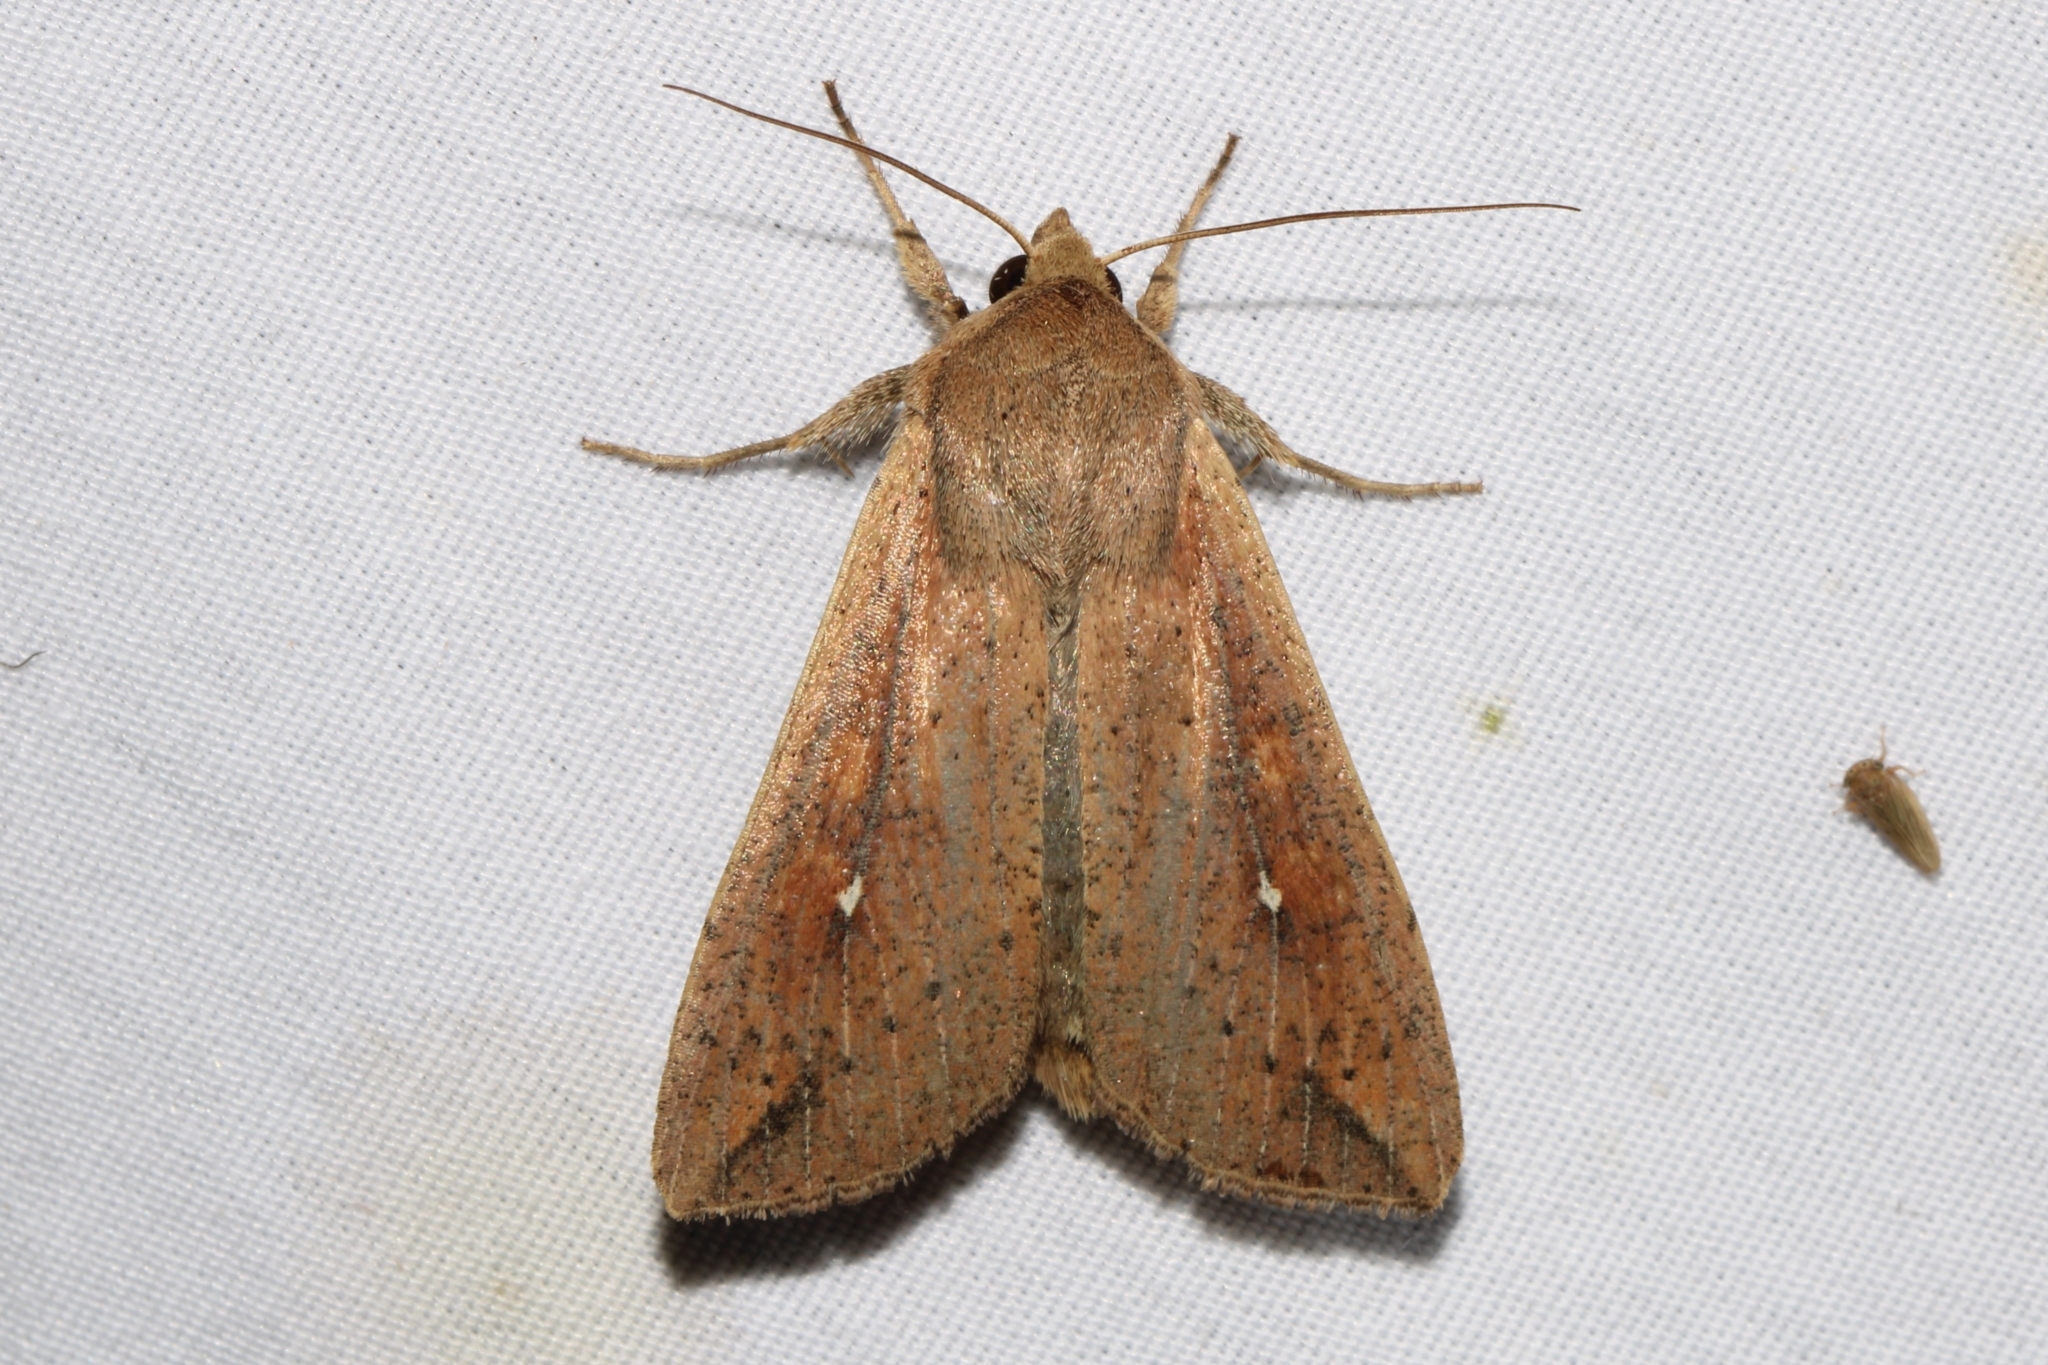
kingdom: Animalia
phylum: Arthropoda
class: Insecta
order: Lepidoptera
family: Noctuidae
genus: Mythimna
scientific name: Mythimna unipuncta
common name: White-speck
